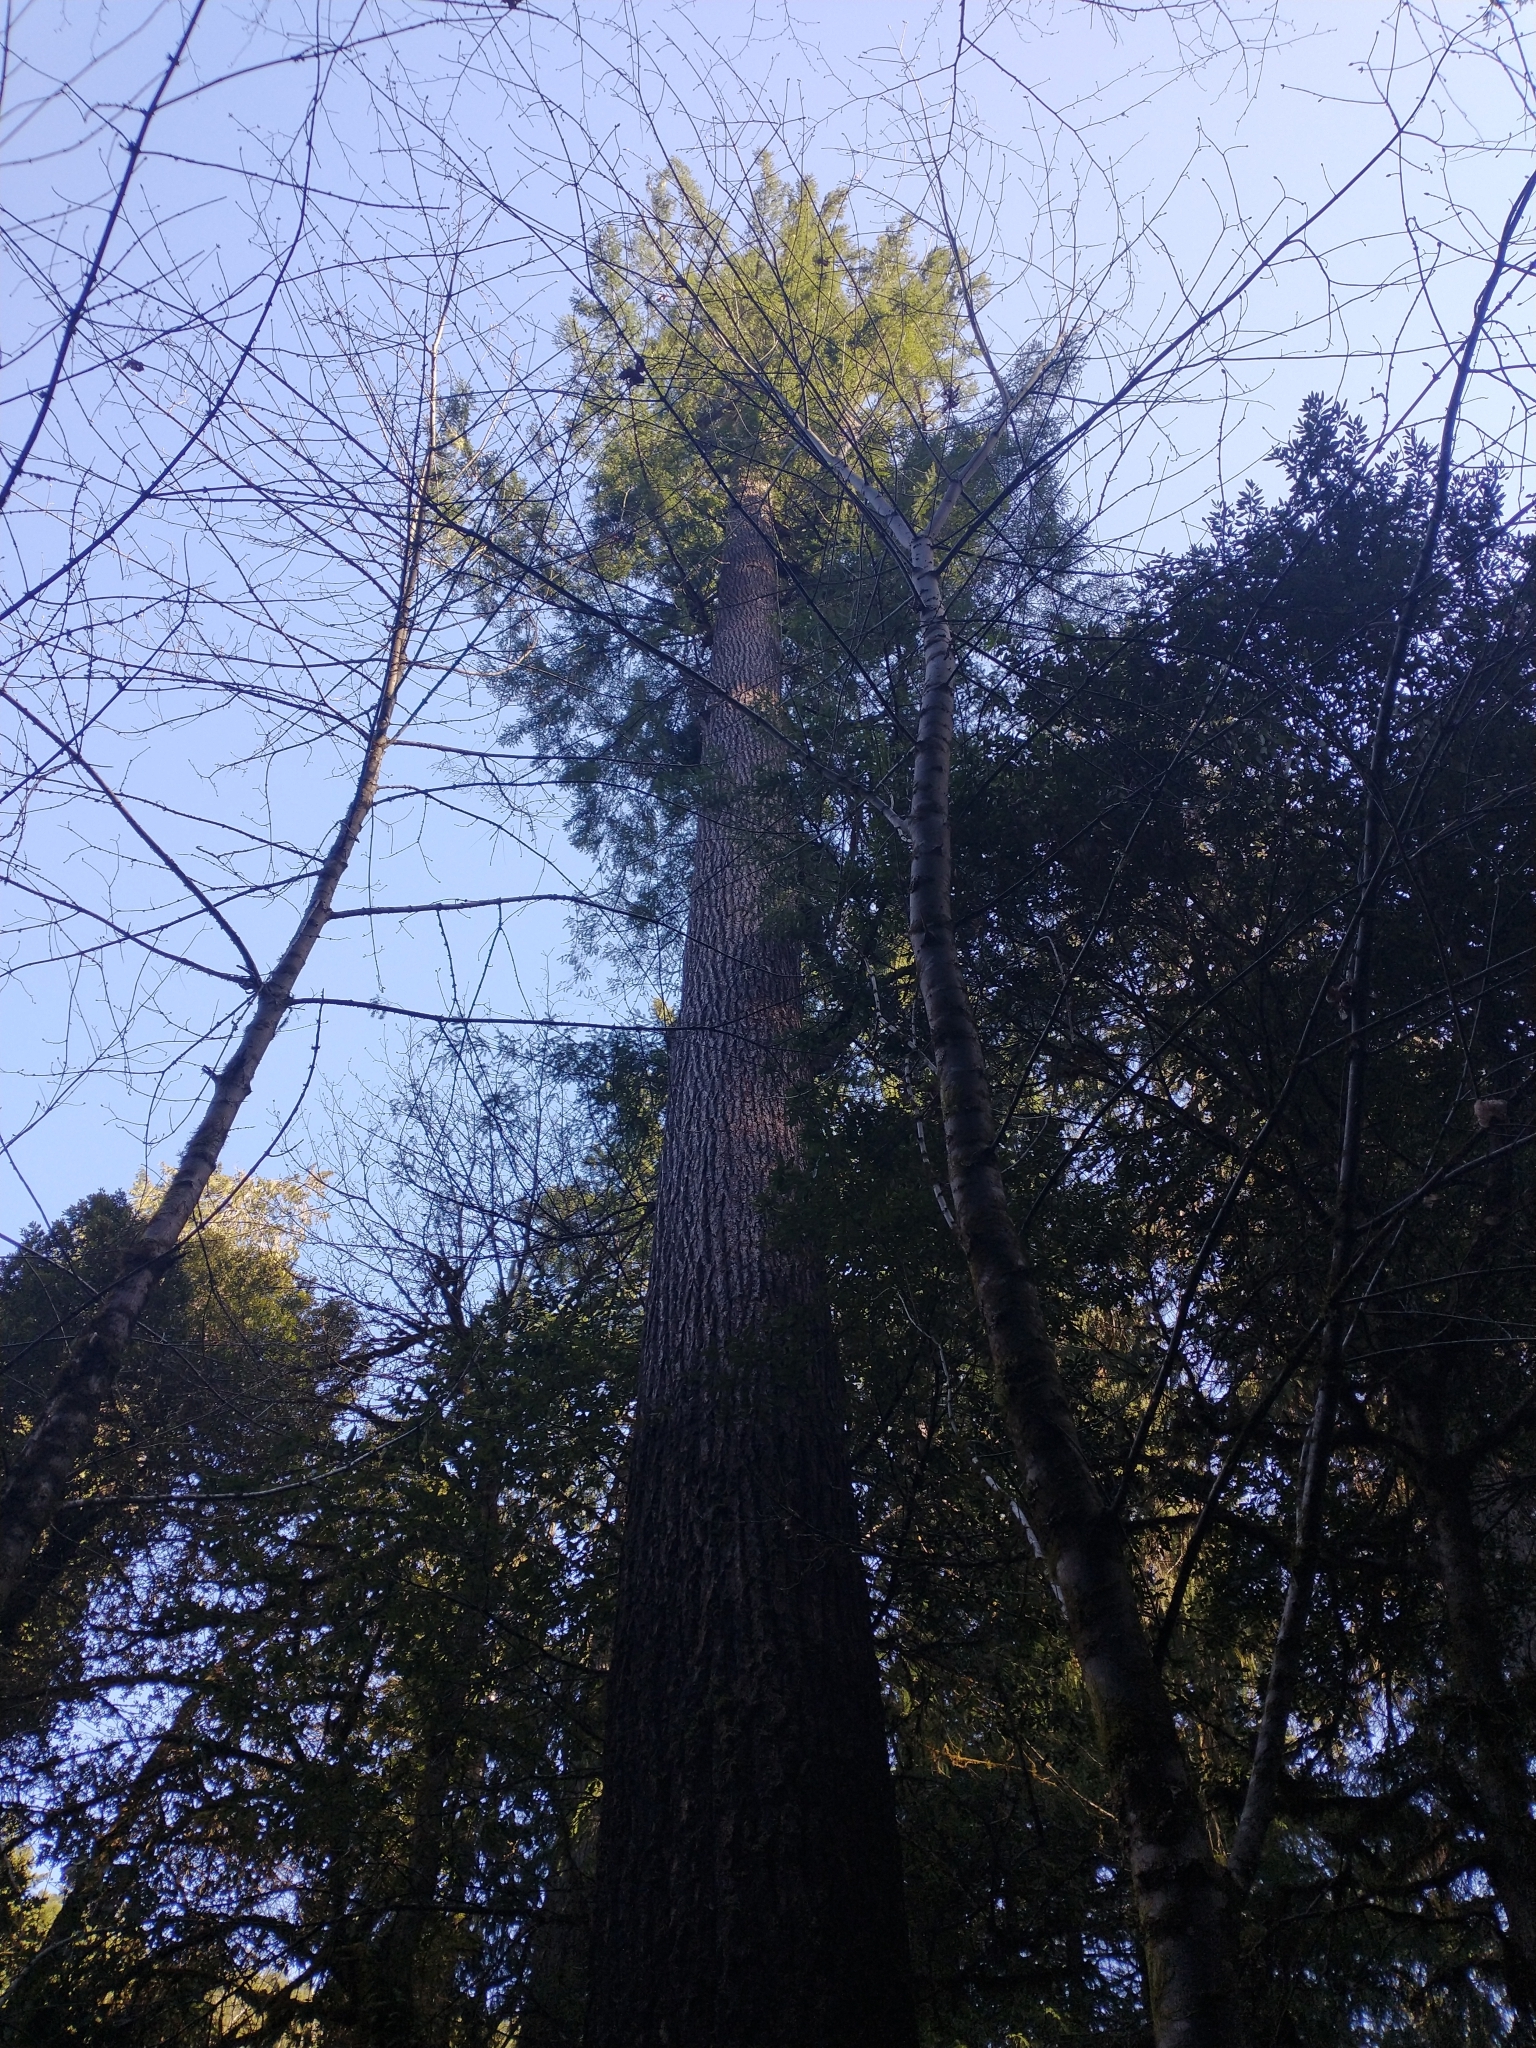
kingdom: Plantae
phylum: Tracheophyta
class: Pinopsida
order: Pinales
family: Pinaceae
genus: Pseudotsuga
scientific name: Pseudotsuga menziesii
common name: Douglas fir
